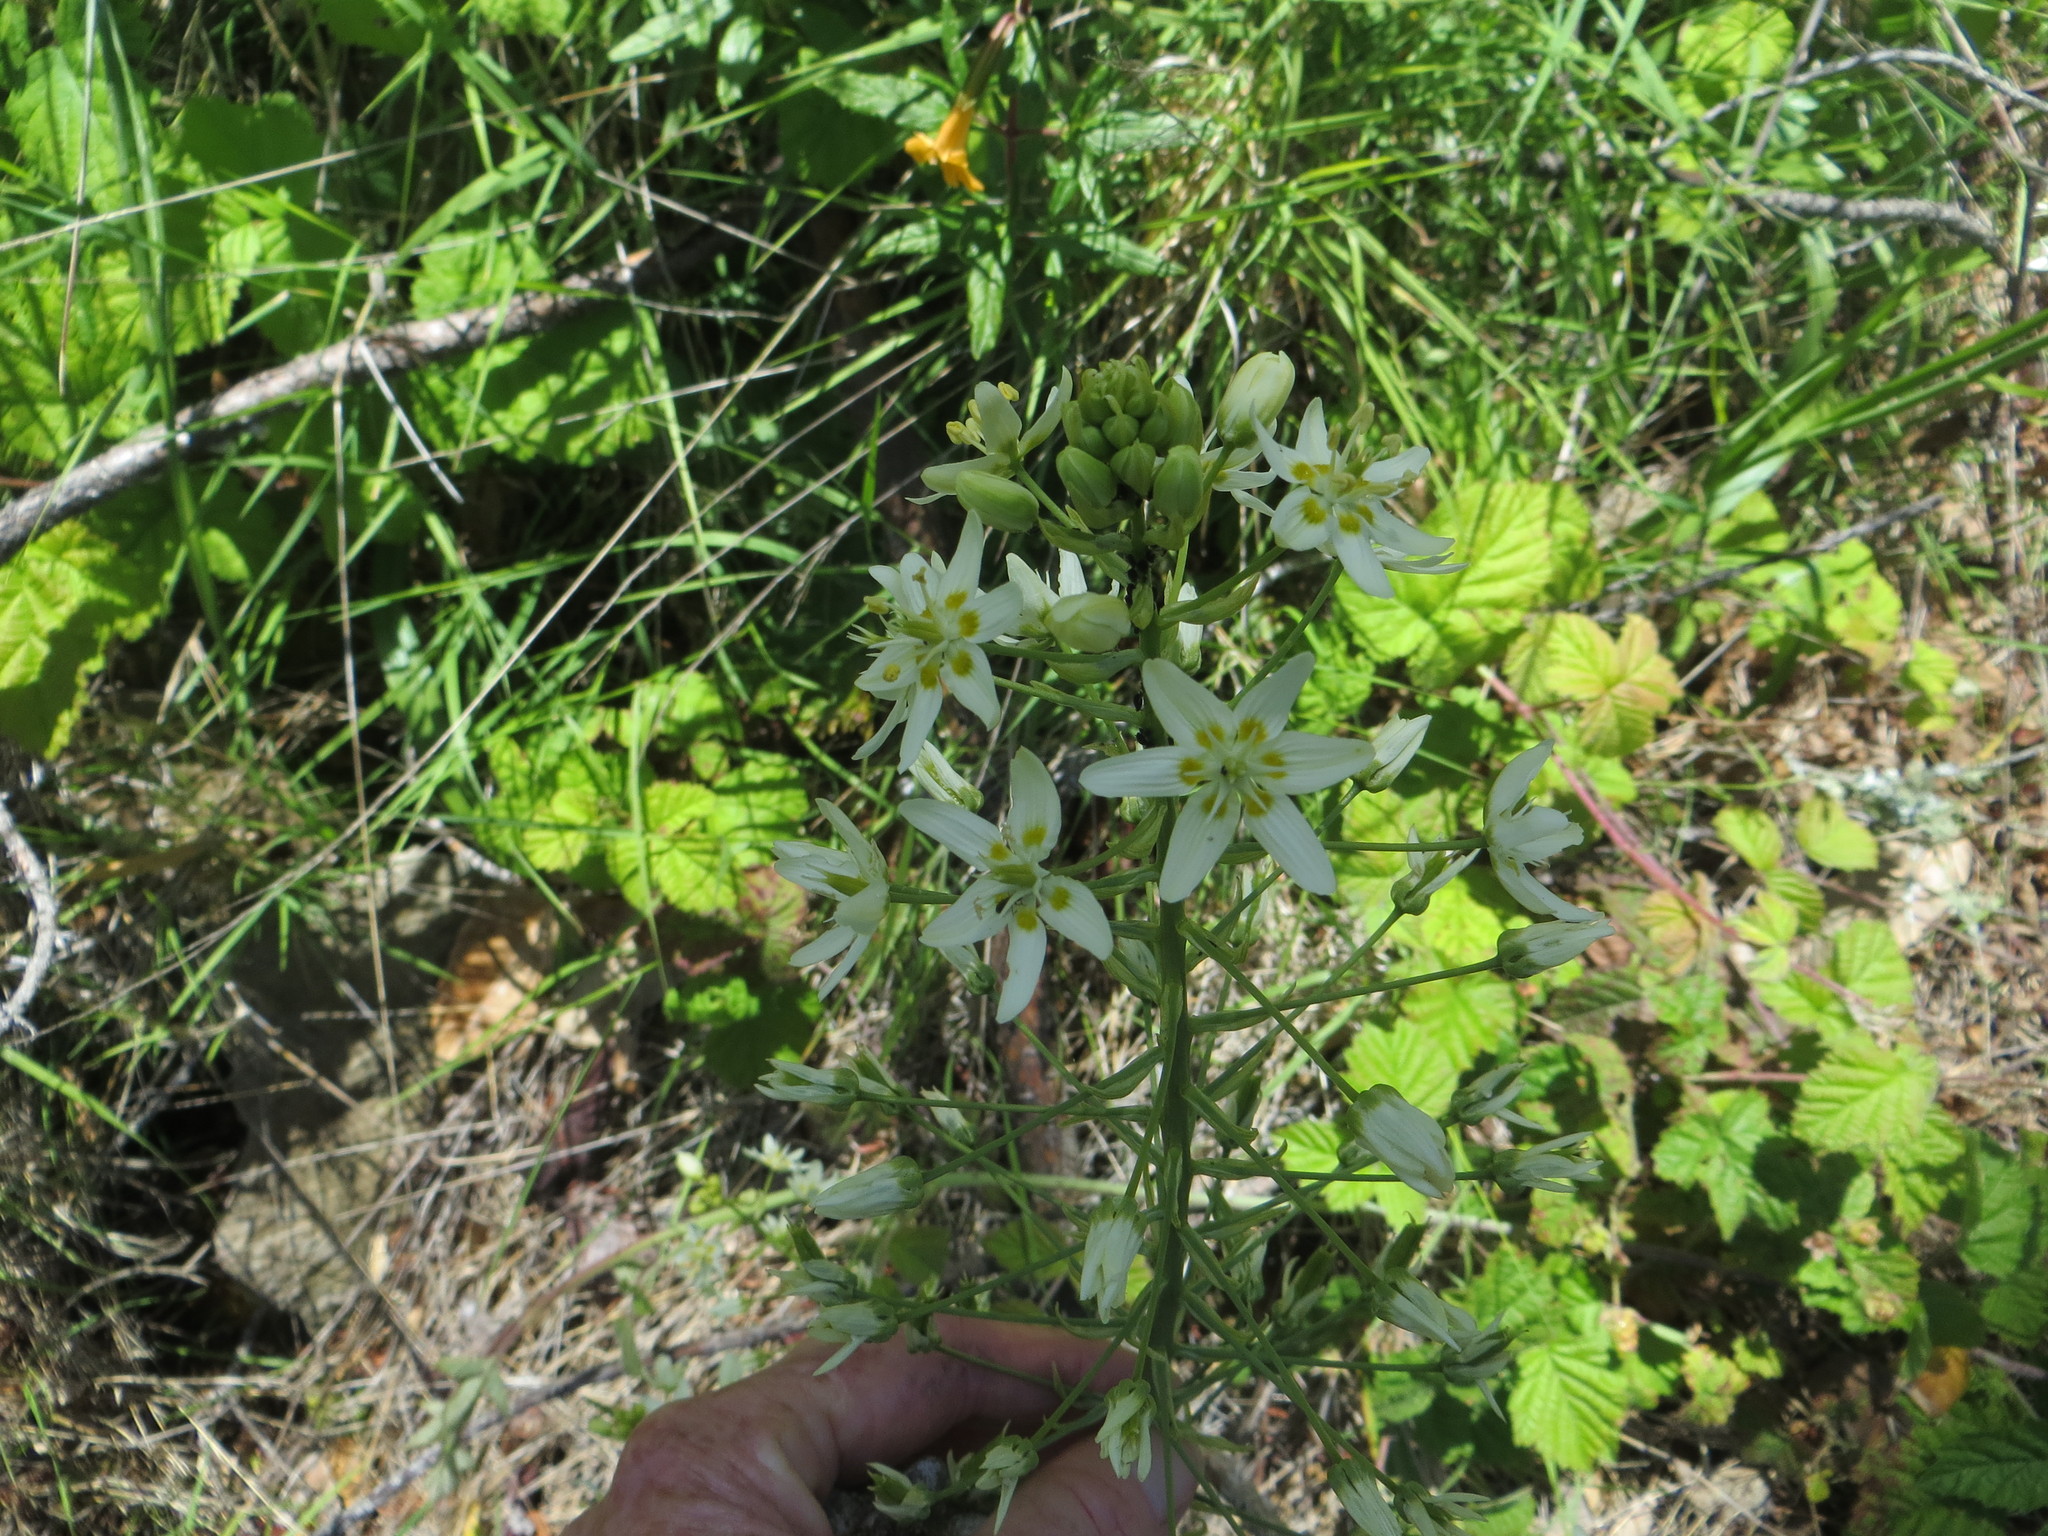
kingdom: Plantae
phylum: Tracheophyta
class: Liliopsida
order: Liliales
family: Melanthiaceae
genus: Toxicoscordion
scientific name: Toxicoscordion fremontii
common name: Fremont's death camas
